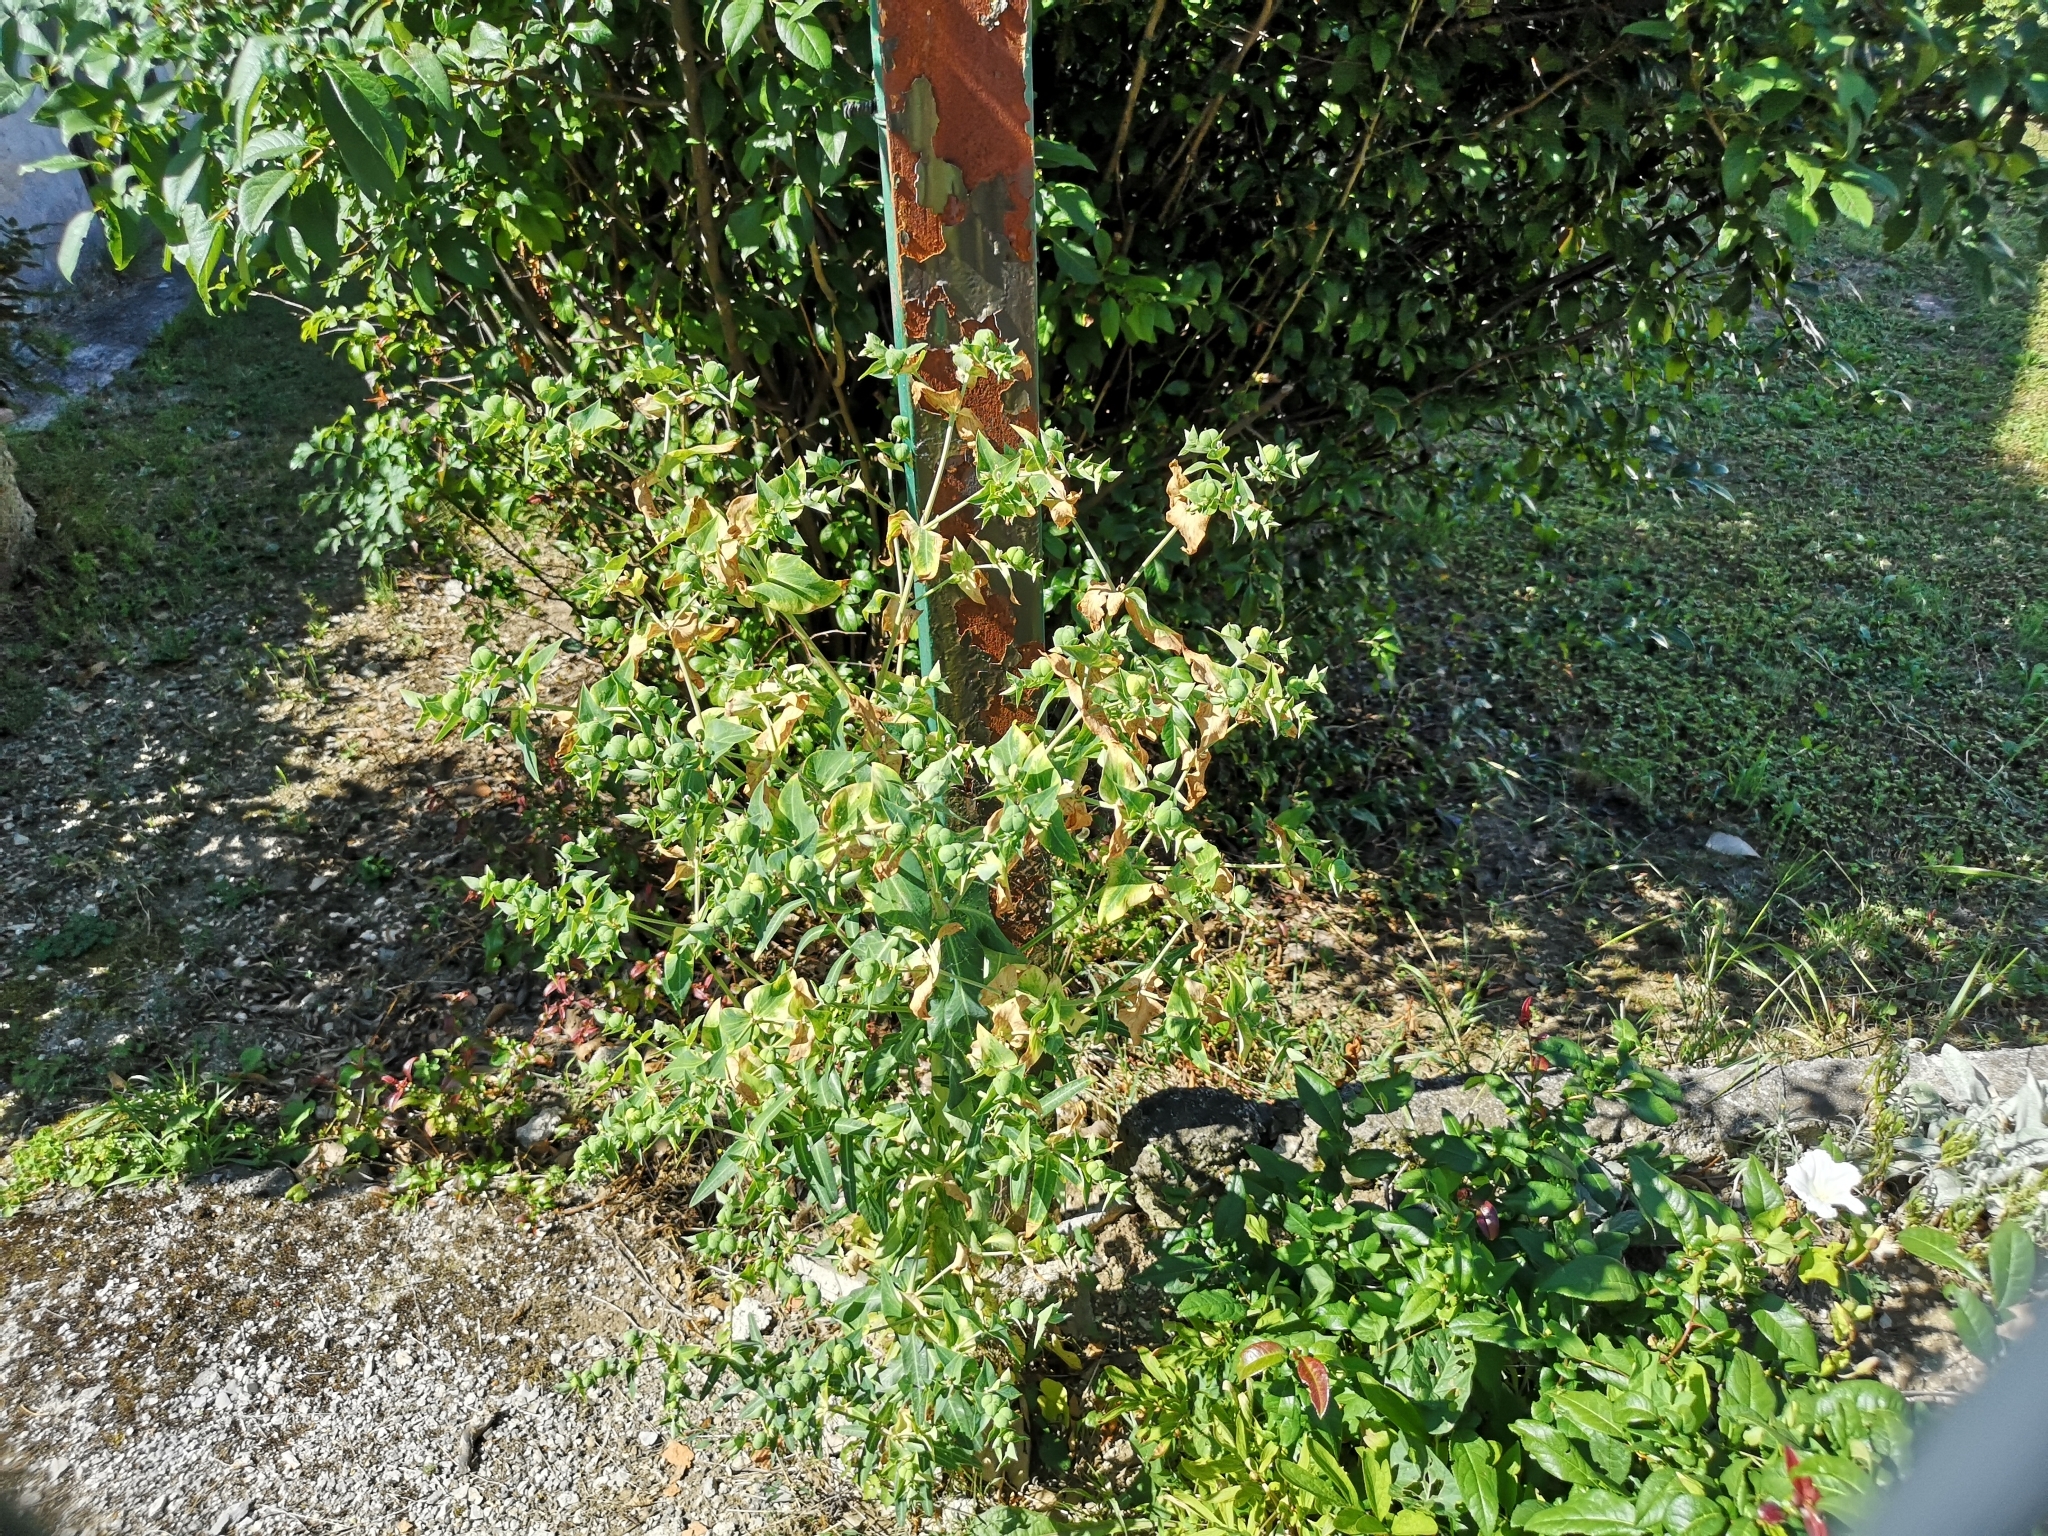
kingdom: Plantae
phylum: Tracheophyta
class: Magnoliopsida
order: Malpighiales
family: Euphorbiaceae
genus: Euphorbia
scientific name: Euphorbia lathyris
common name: Caper spurge
